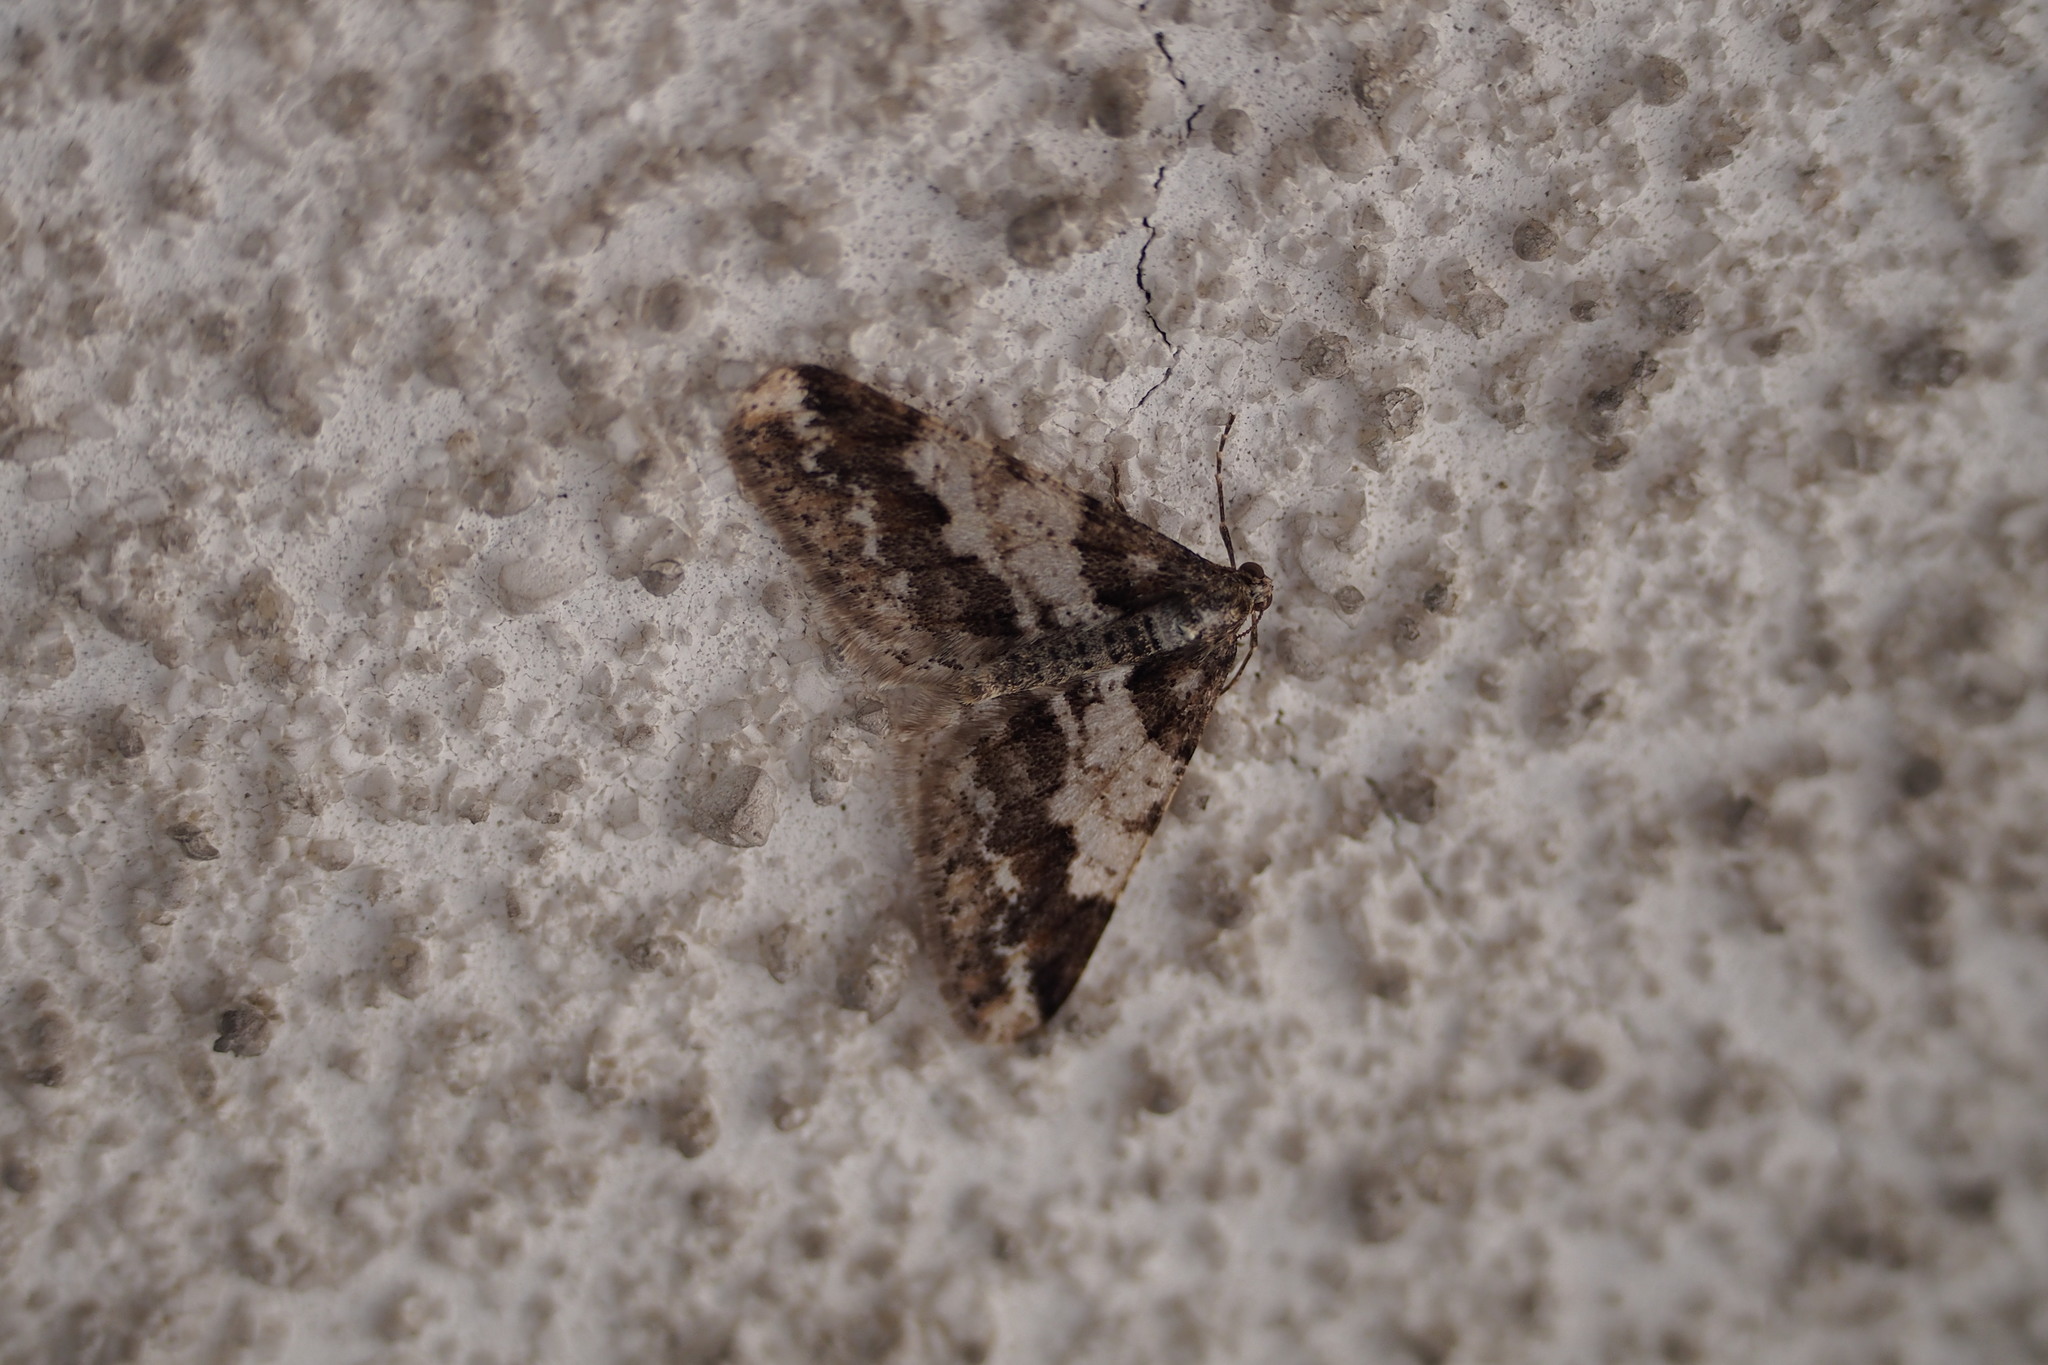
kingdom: Animalia
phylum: Arthropoda
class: Insecta
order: Lepidoptera
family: Geometridae
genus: Agriopis
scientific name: Agriopis dira
